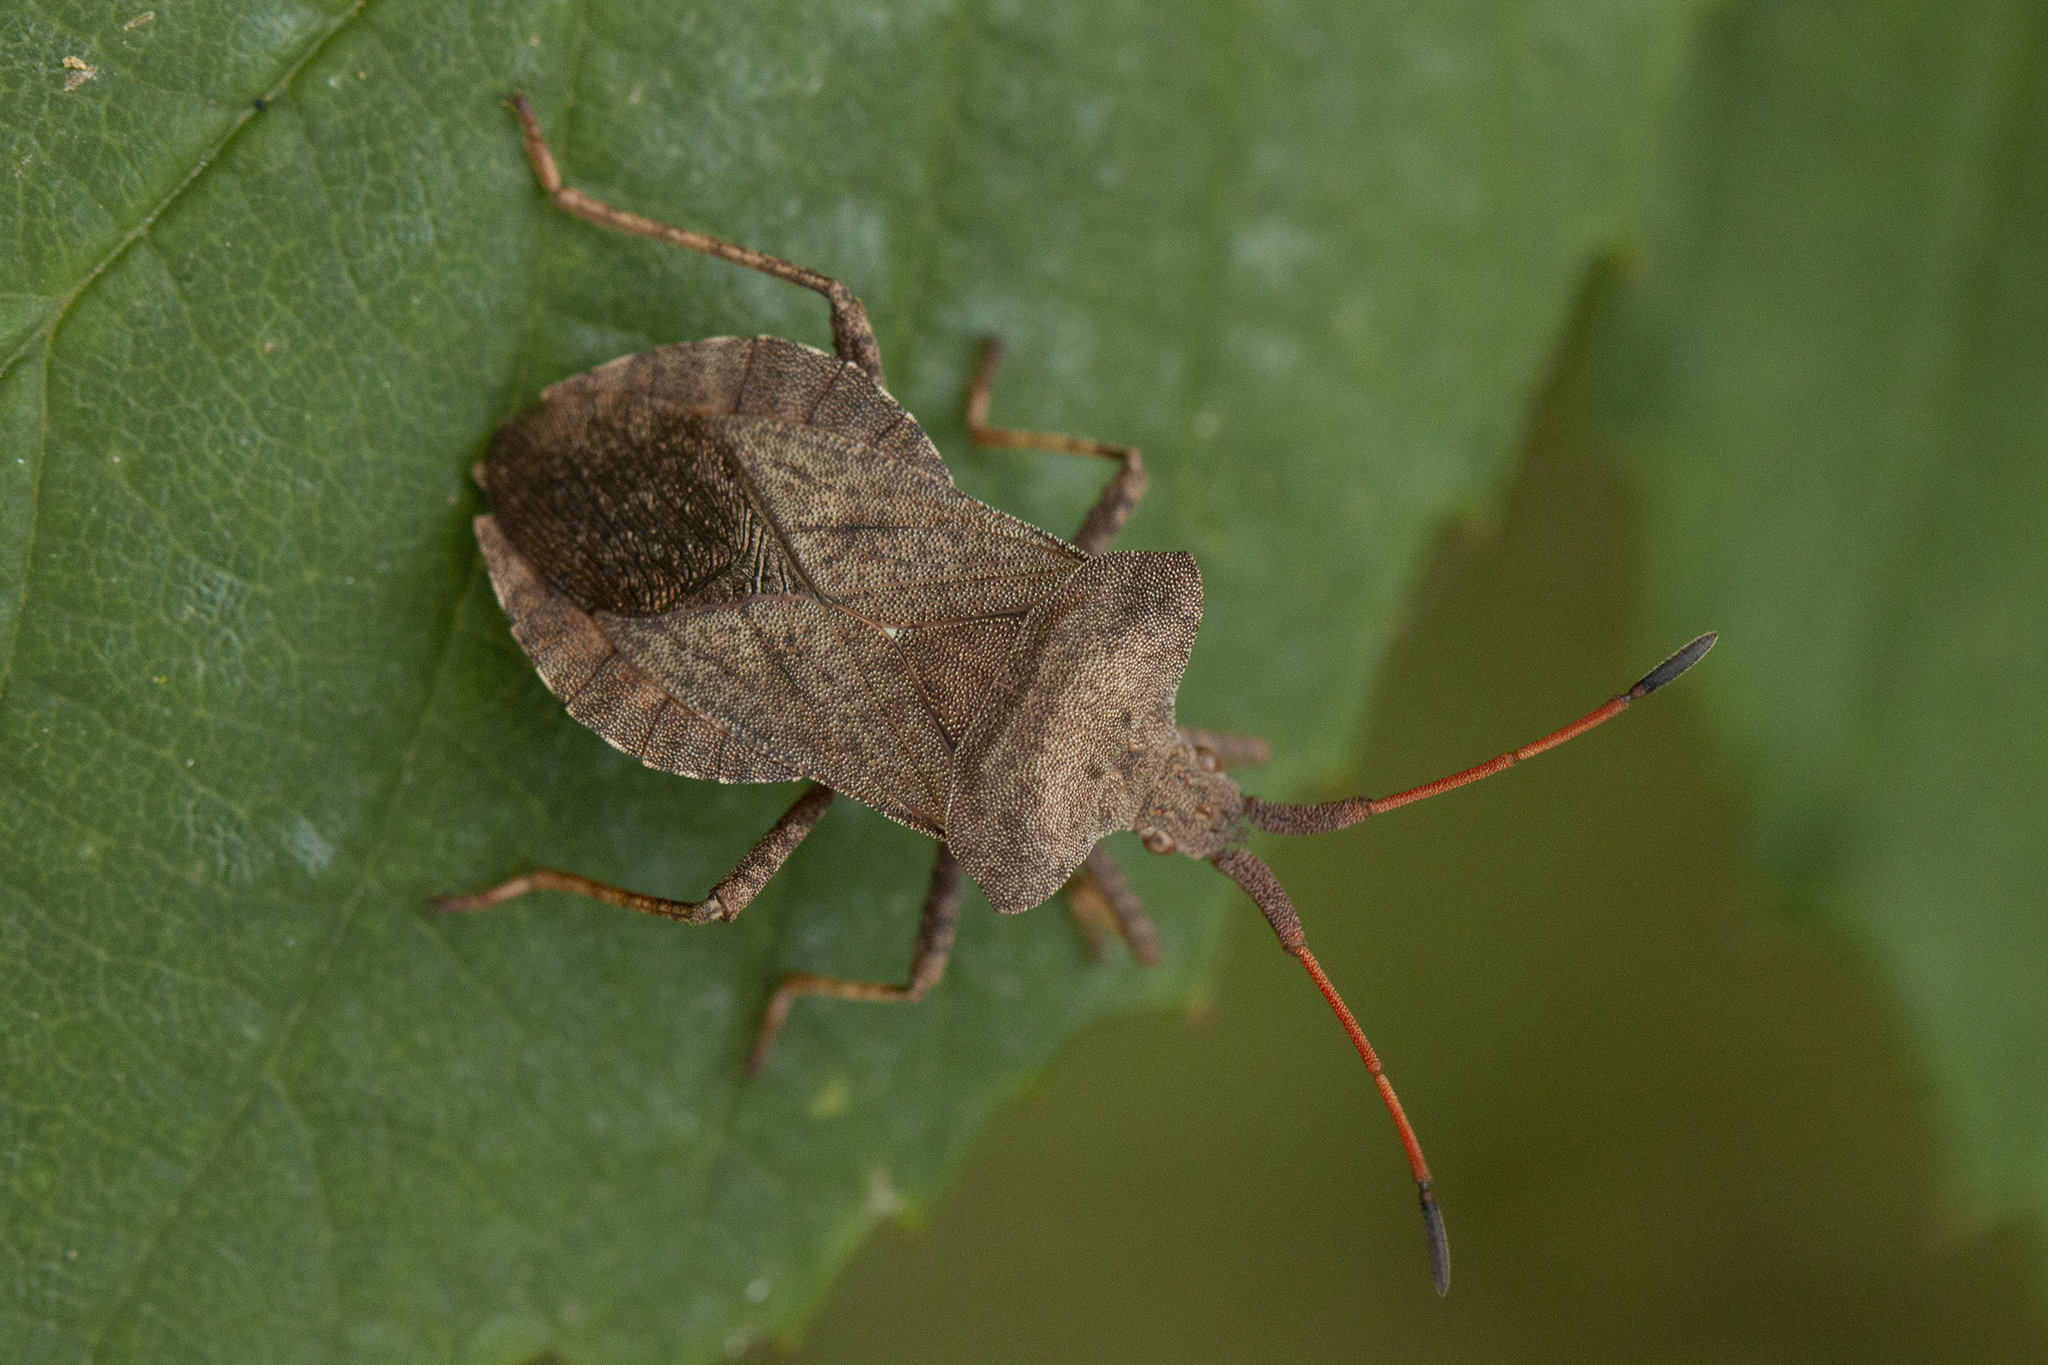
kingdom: Animalia
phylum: Arthropoda
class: Insecta
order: Hemiptera
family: Coreidae
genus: Coreus
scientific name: Coreus marginatus
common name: Dock bug
